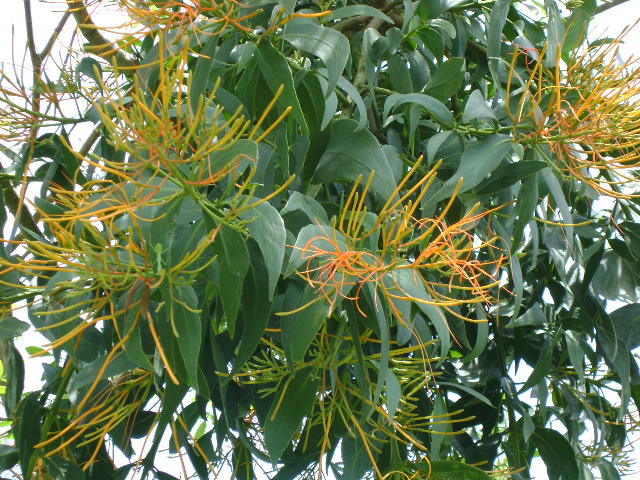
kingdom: Plantae
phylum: Tracheophyta
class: Magnoliopsida
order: Santalales
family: Loranthaceae
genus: Psittacanthus
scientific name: Psittacanthus schiedeanus
